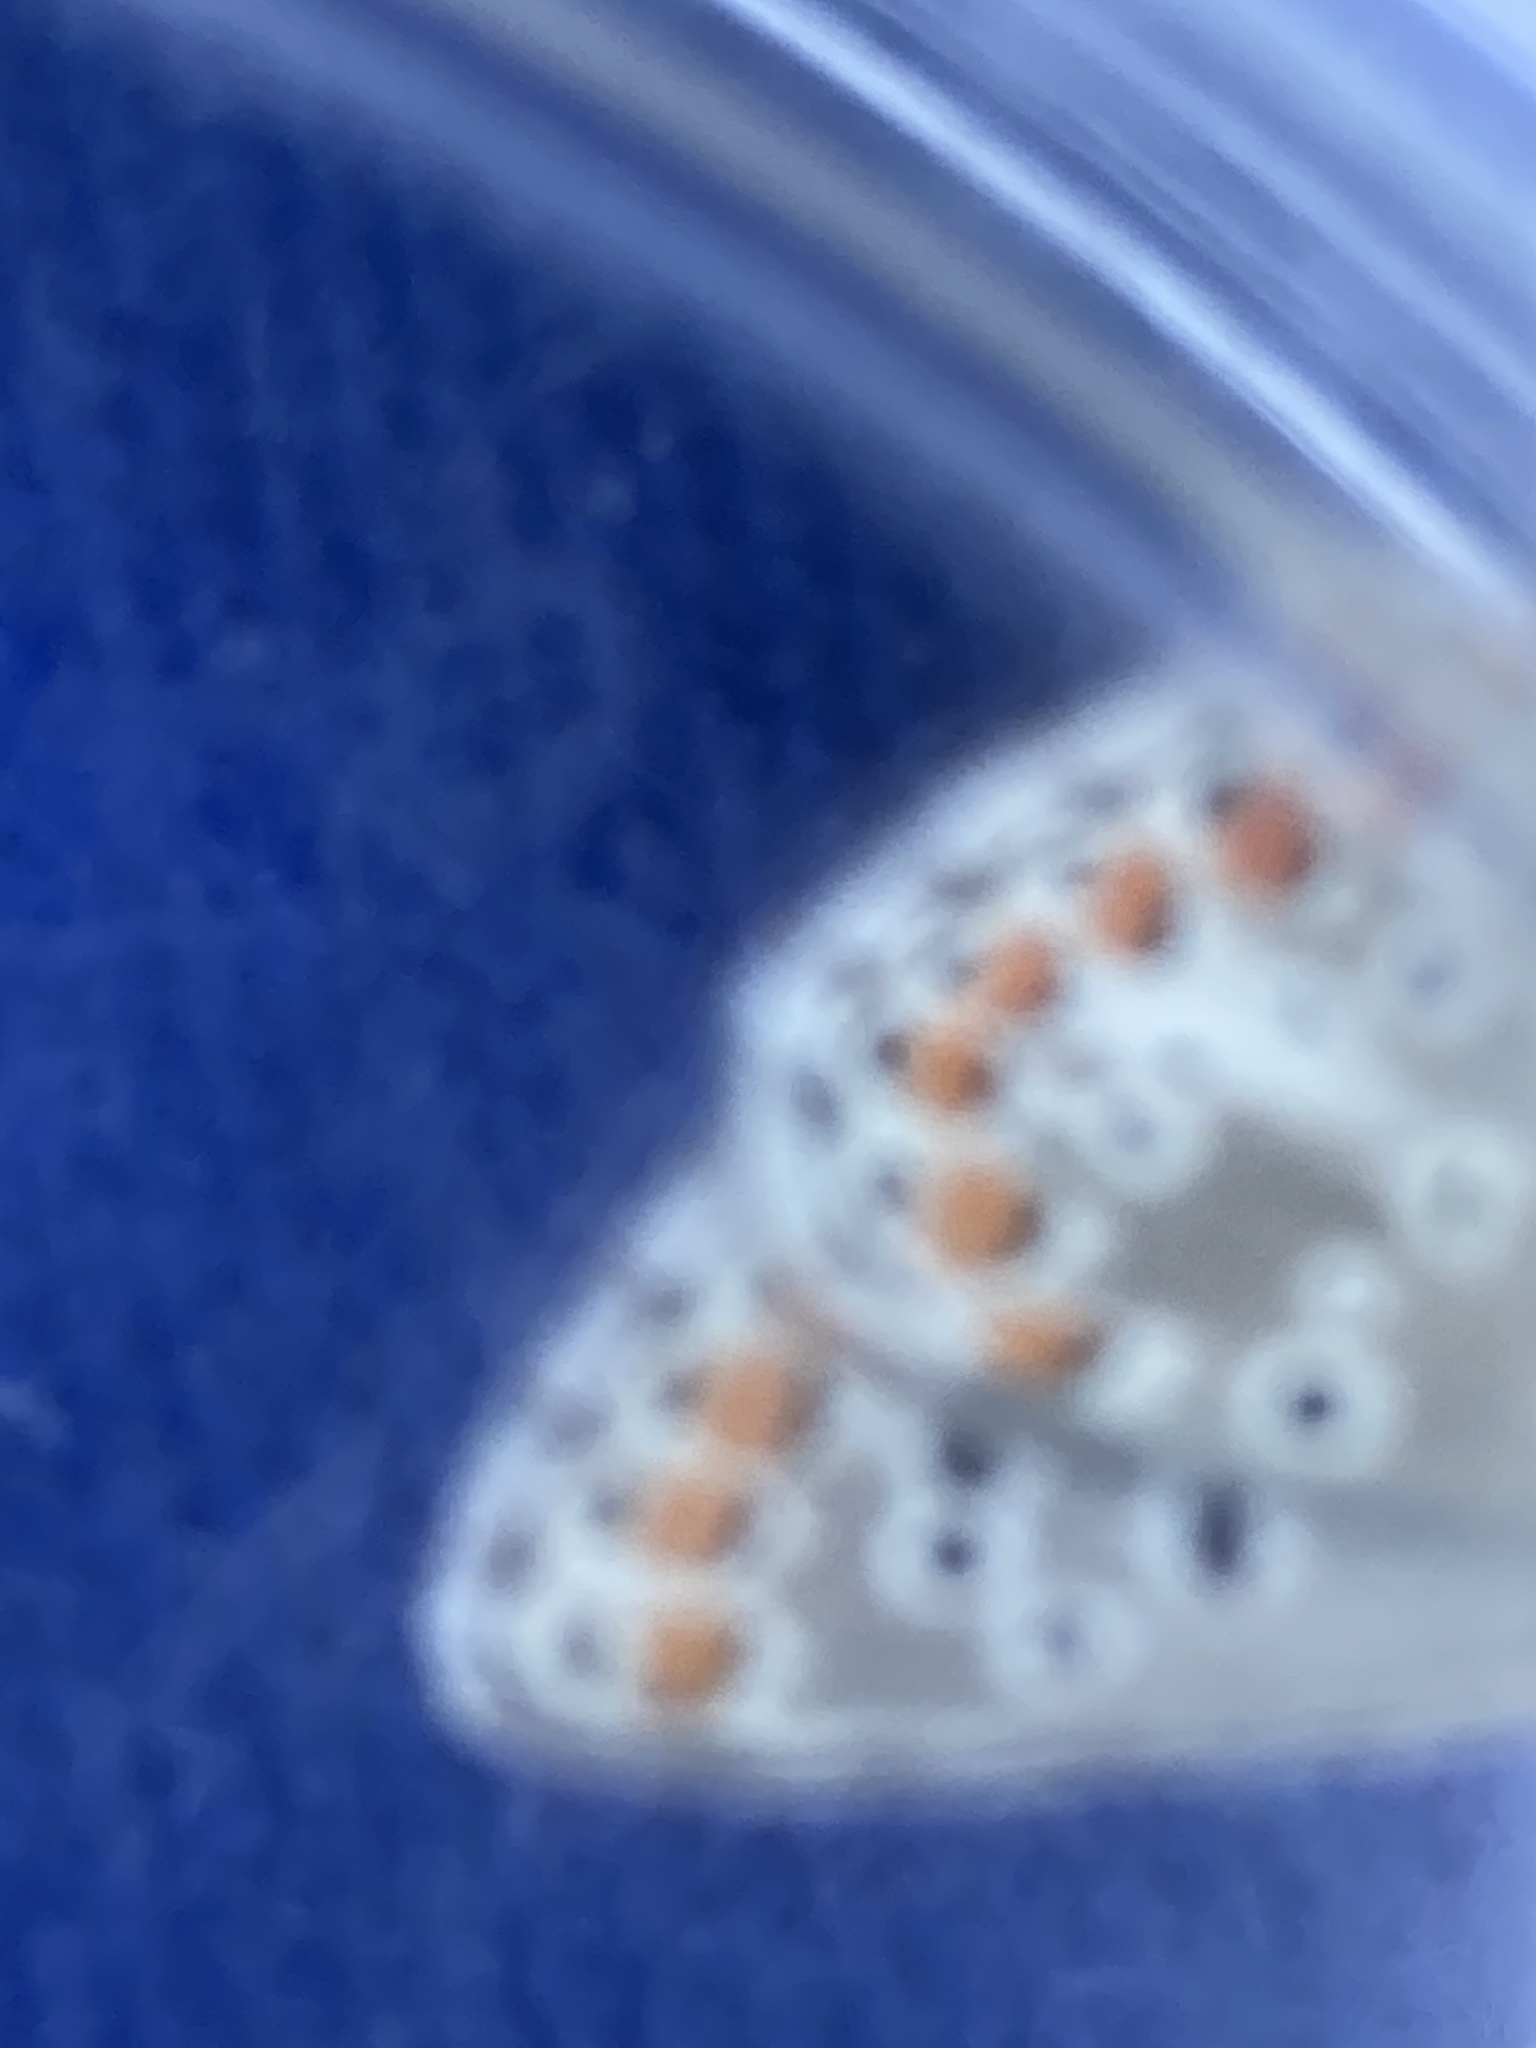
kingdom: Animalia
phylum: Arthropoda
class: Insecta
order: Lepidoptera
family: Lycaenidae
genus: Aricia
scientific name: Aricia agestis
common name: Brown argus
